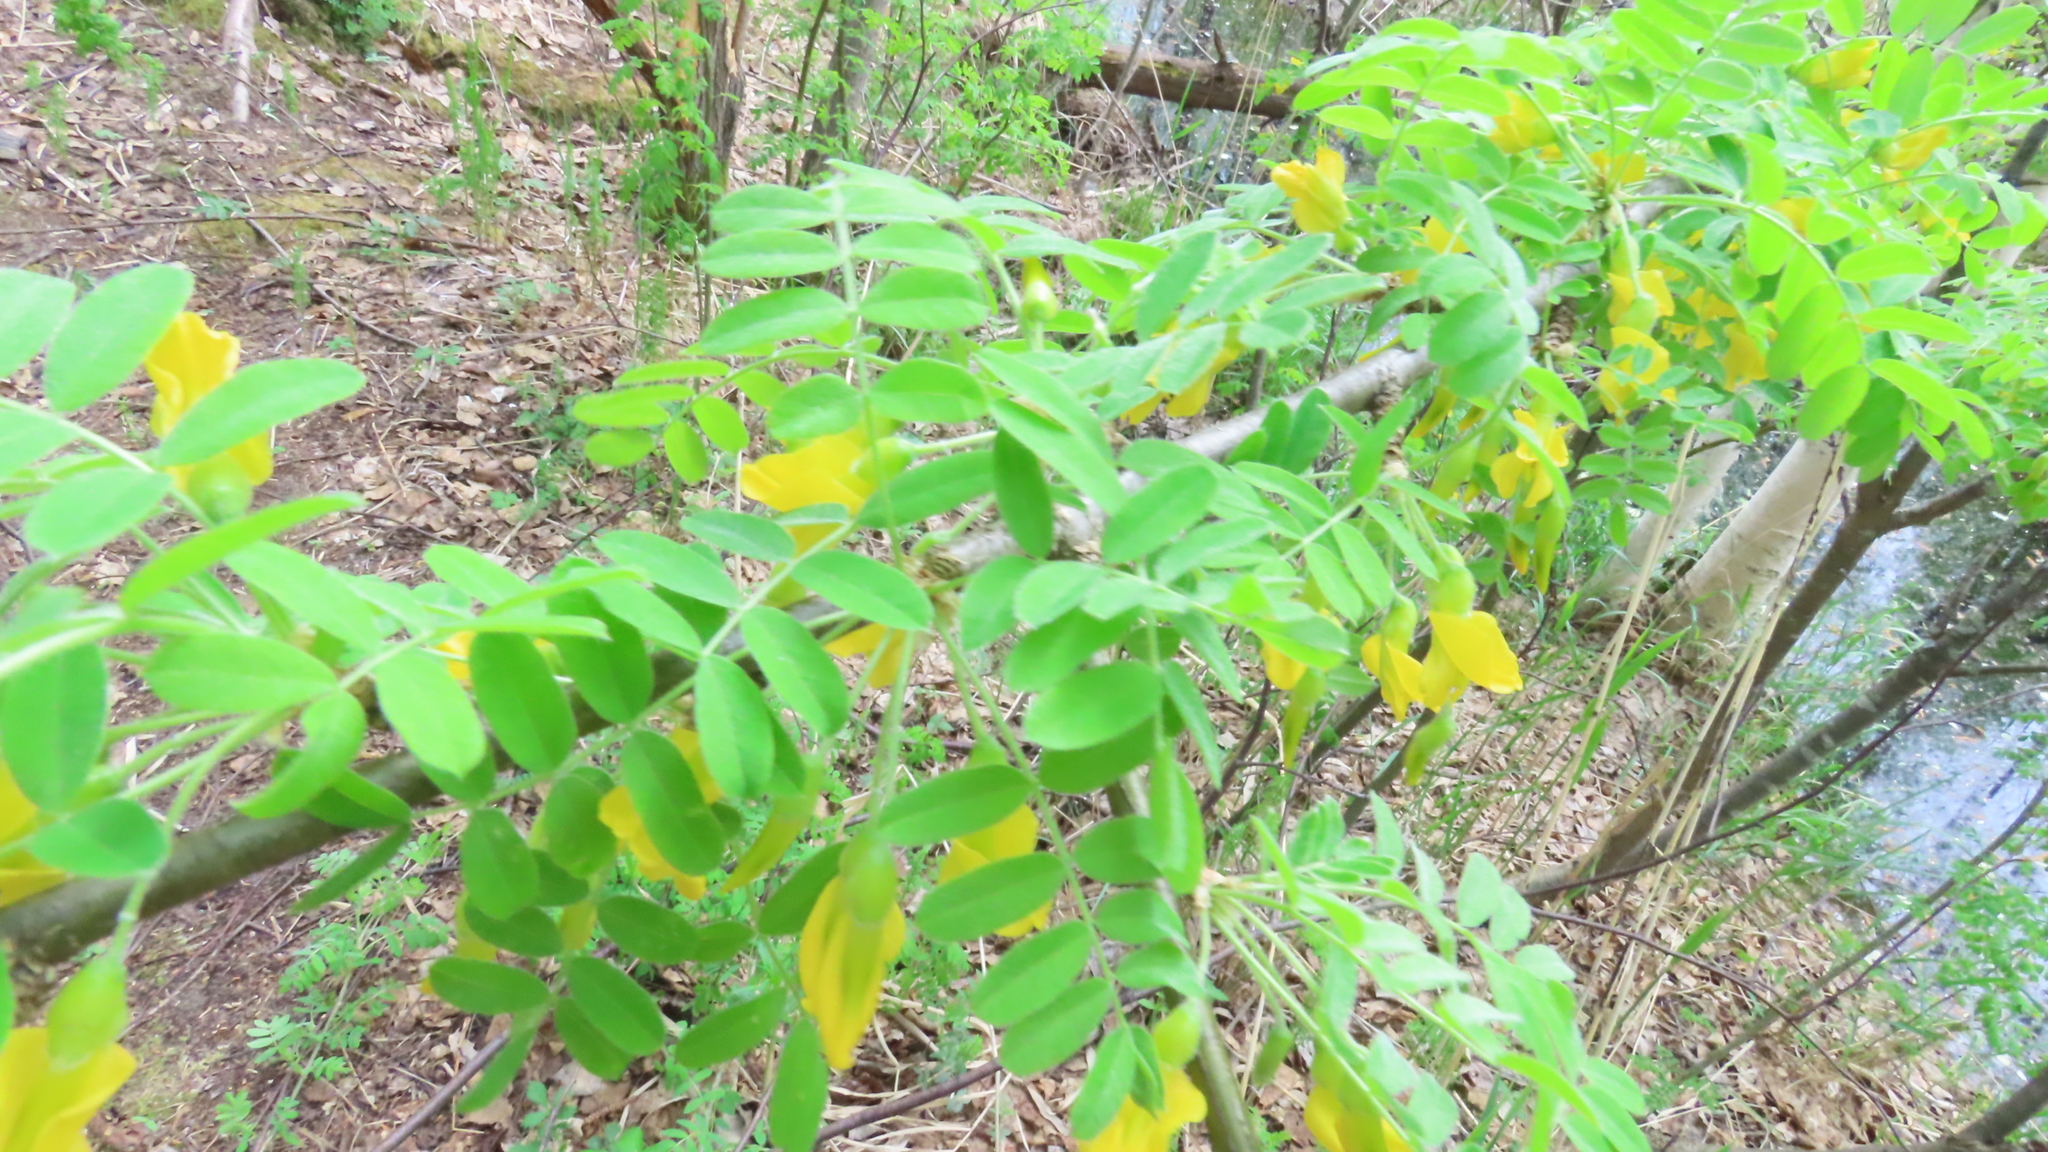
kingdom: Plantae
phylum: Tracheophyta
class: Magnoliopsida
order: Fabales
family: Fabaceae
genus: Caragana
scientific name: Caragana arborescens
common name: Siberian peashrub
